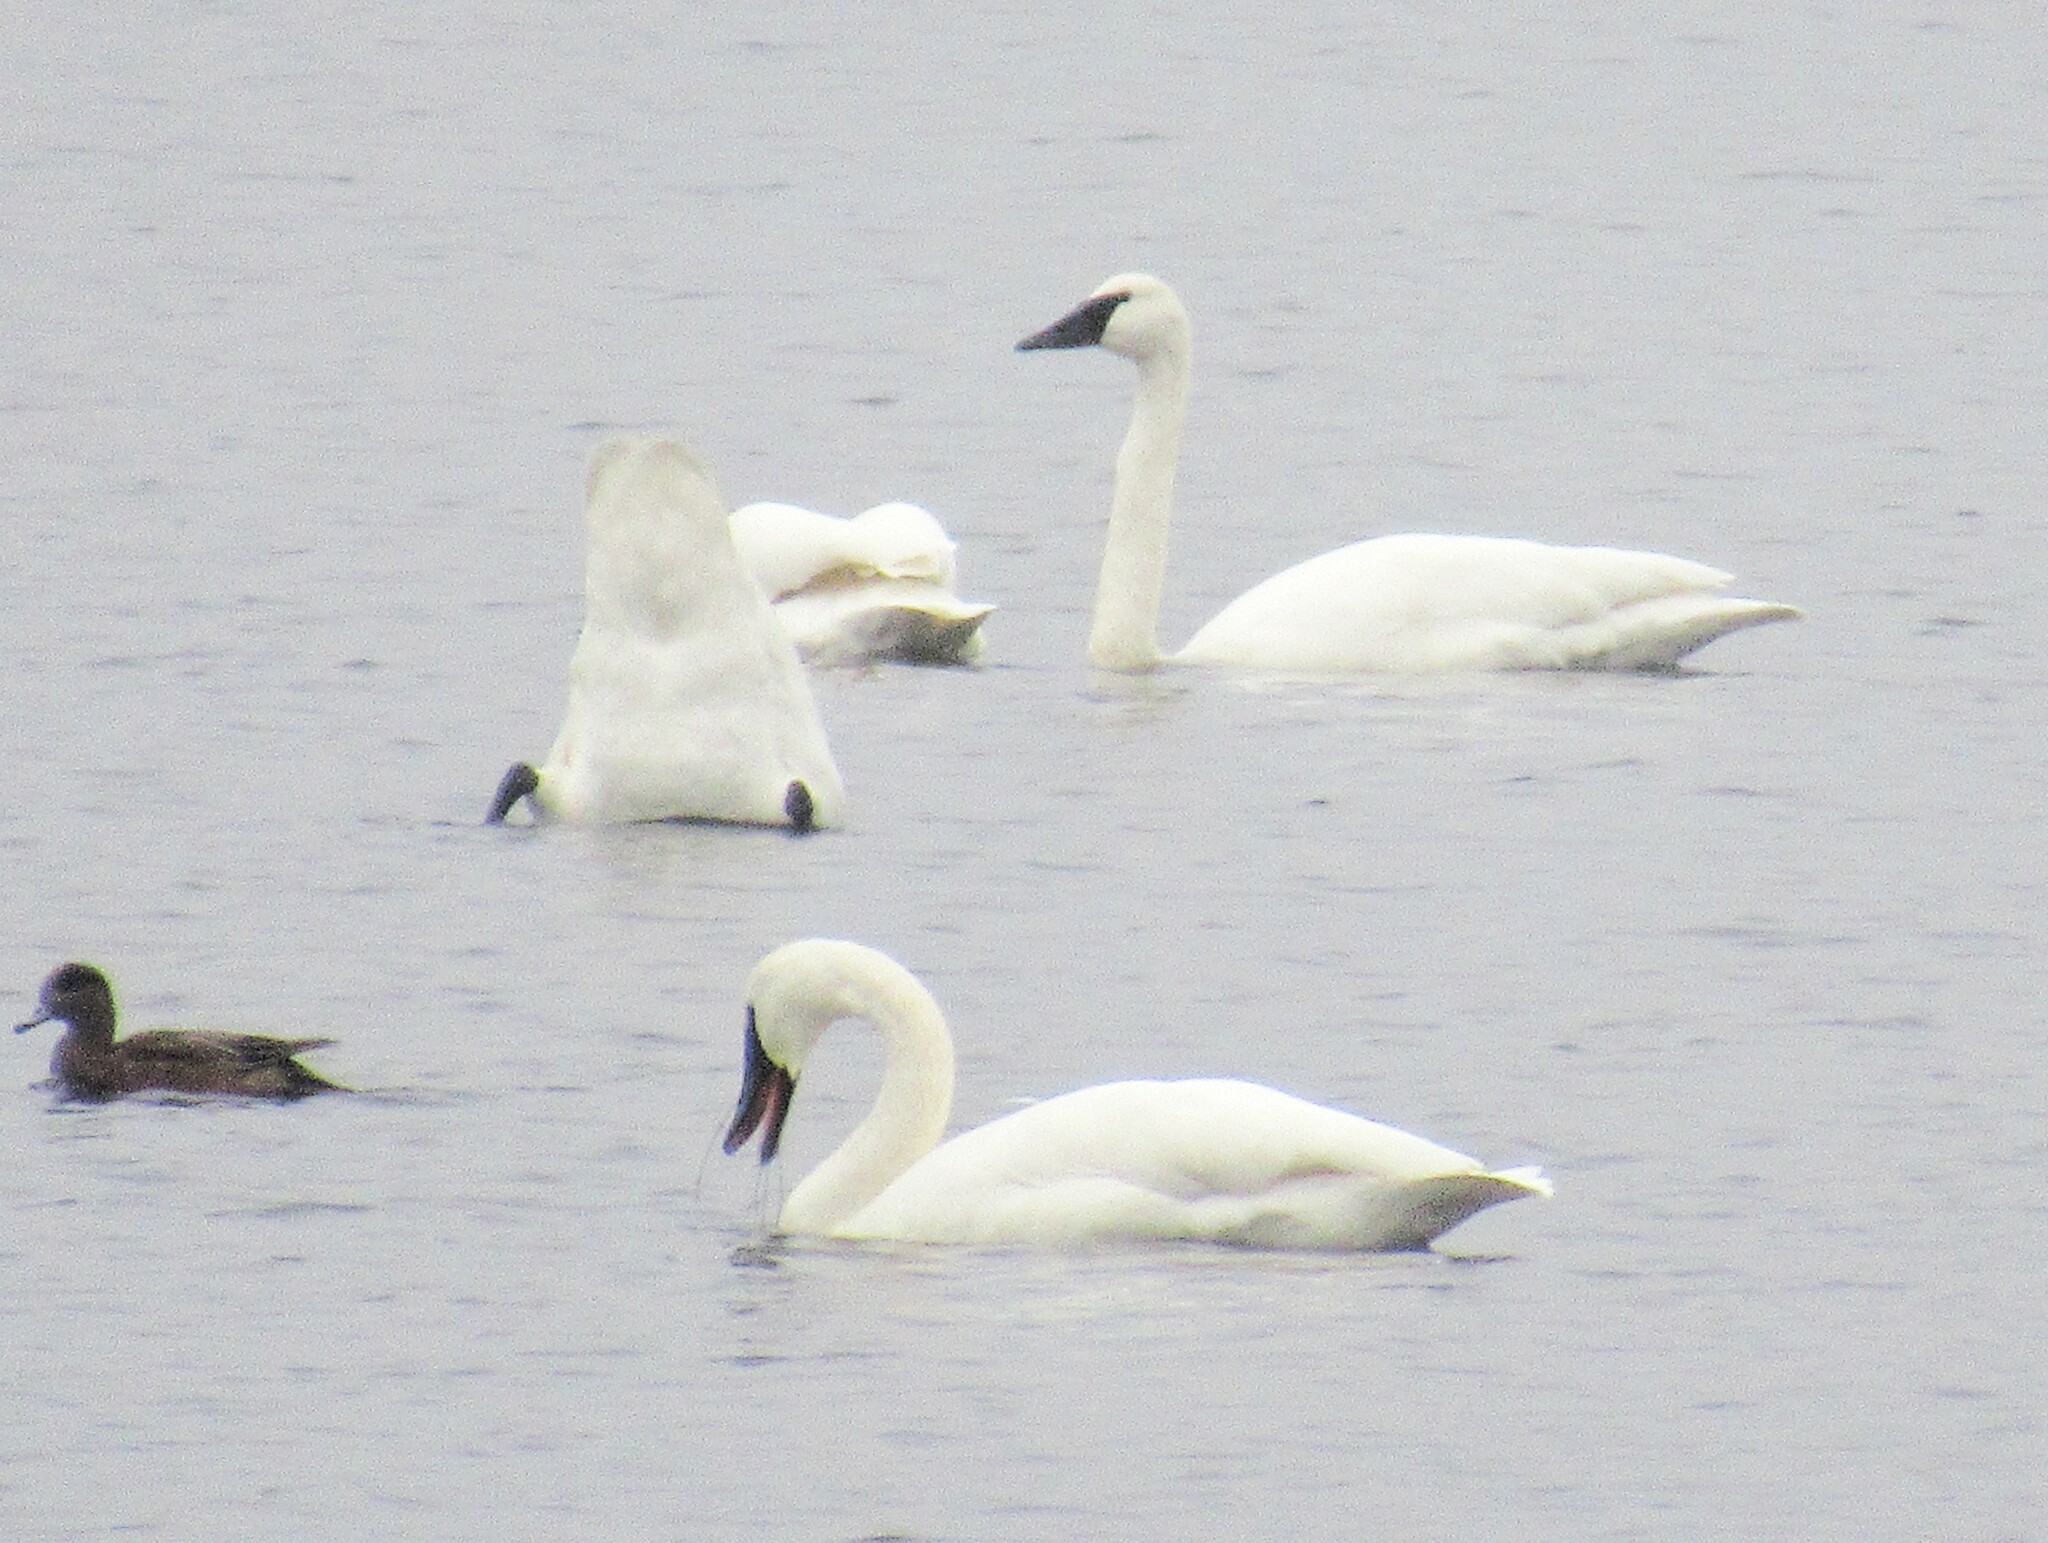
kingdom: Animalia
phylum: Chordata
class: Aves
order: Anseriformes
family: Anatidae
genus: Cygnus
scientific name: Cygnus buccinator
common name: Trumpeter swan
